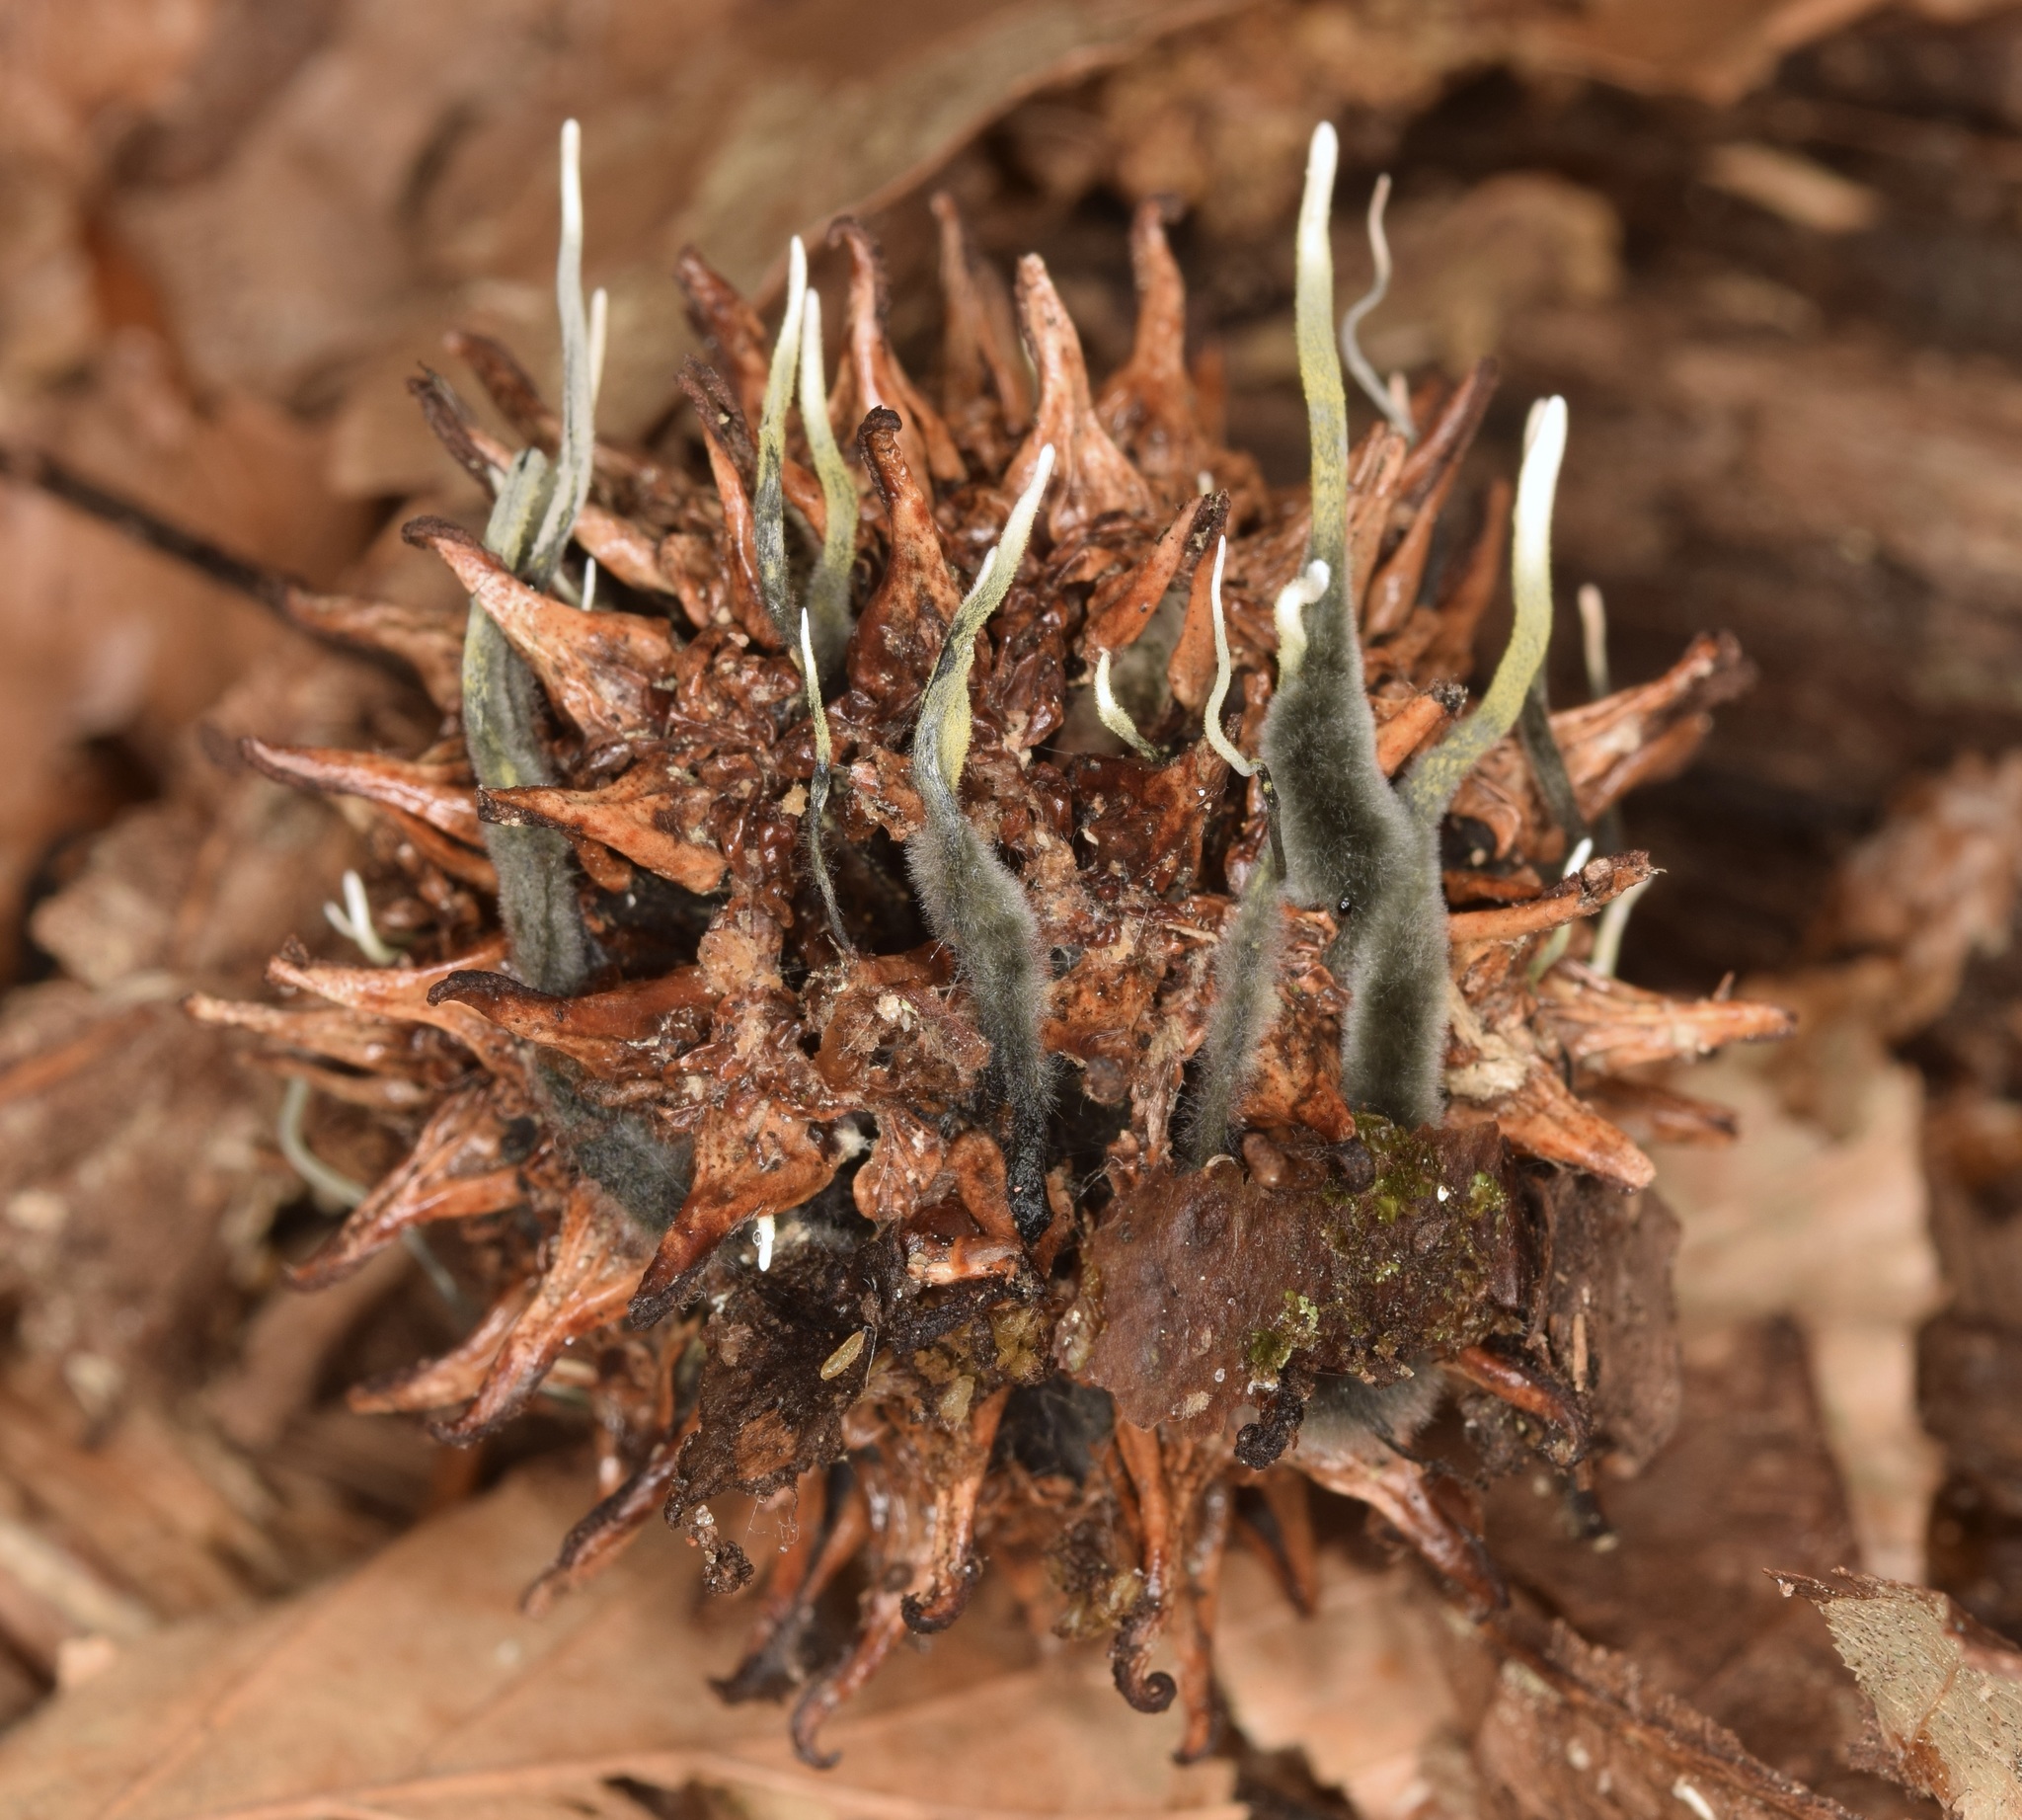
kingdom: Fungi
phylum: Ascomycota
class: Sordariomycetes
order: Xylariales
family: Xylariaceae
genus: Xylaria
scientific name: Xylaria liquidambaris
